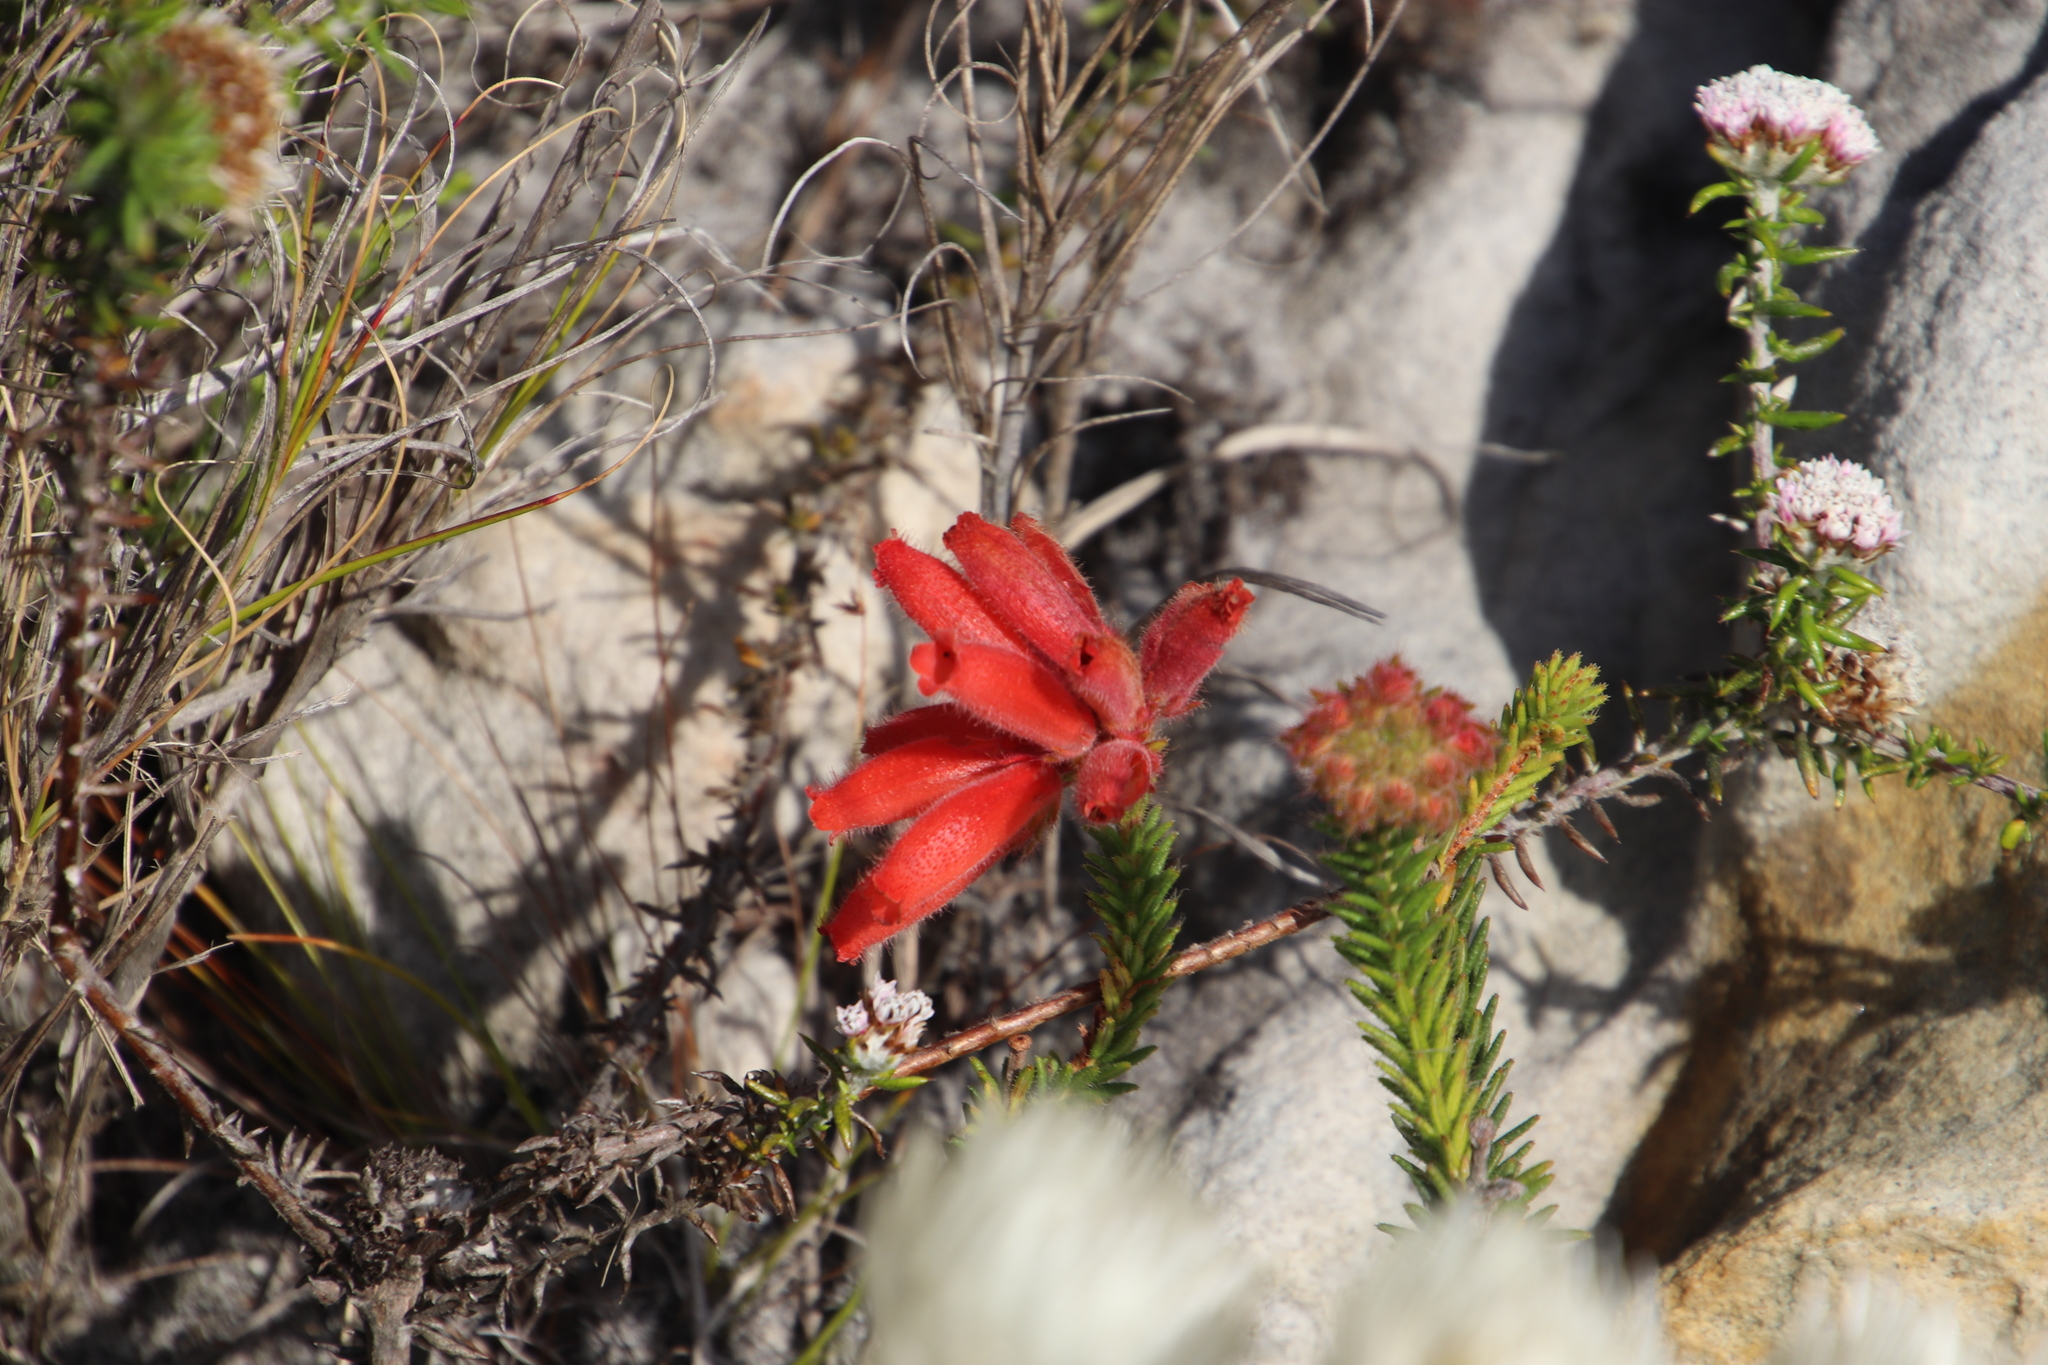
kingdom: Plantae
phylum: Tracheophyta
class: Magnoliopsida
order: Ericales
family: Ericaceae
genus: Erica
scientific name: Erica cerinthoides
